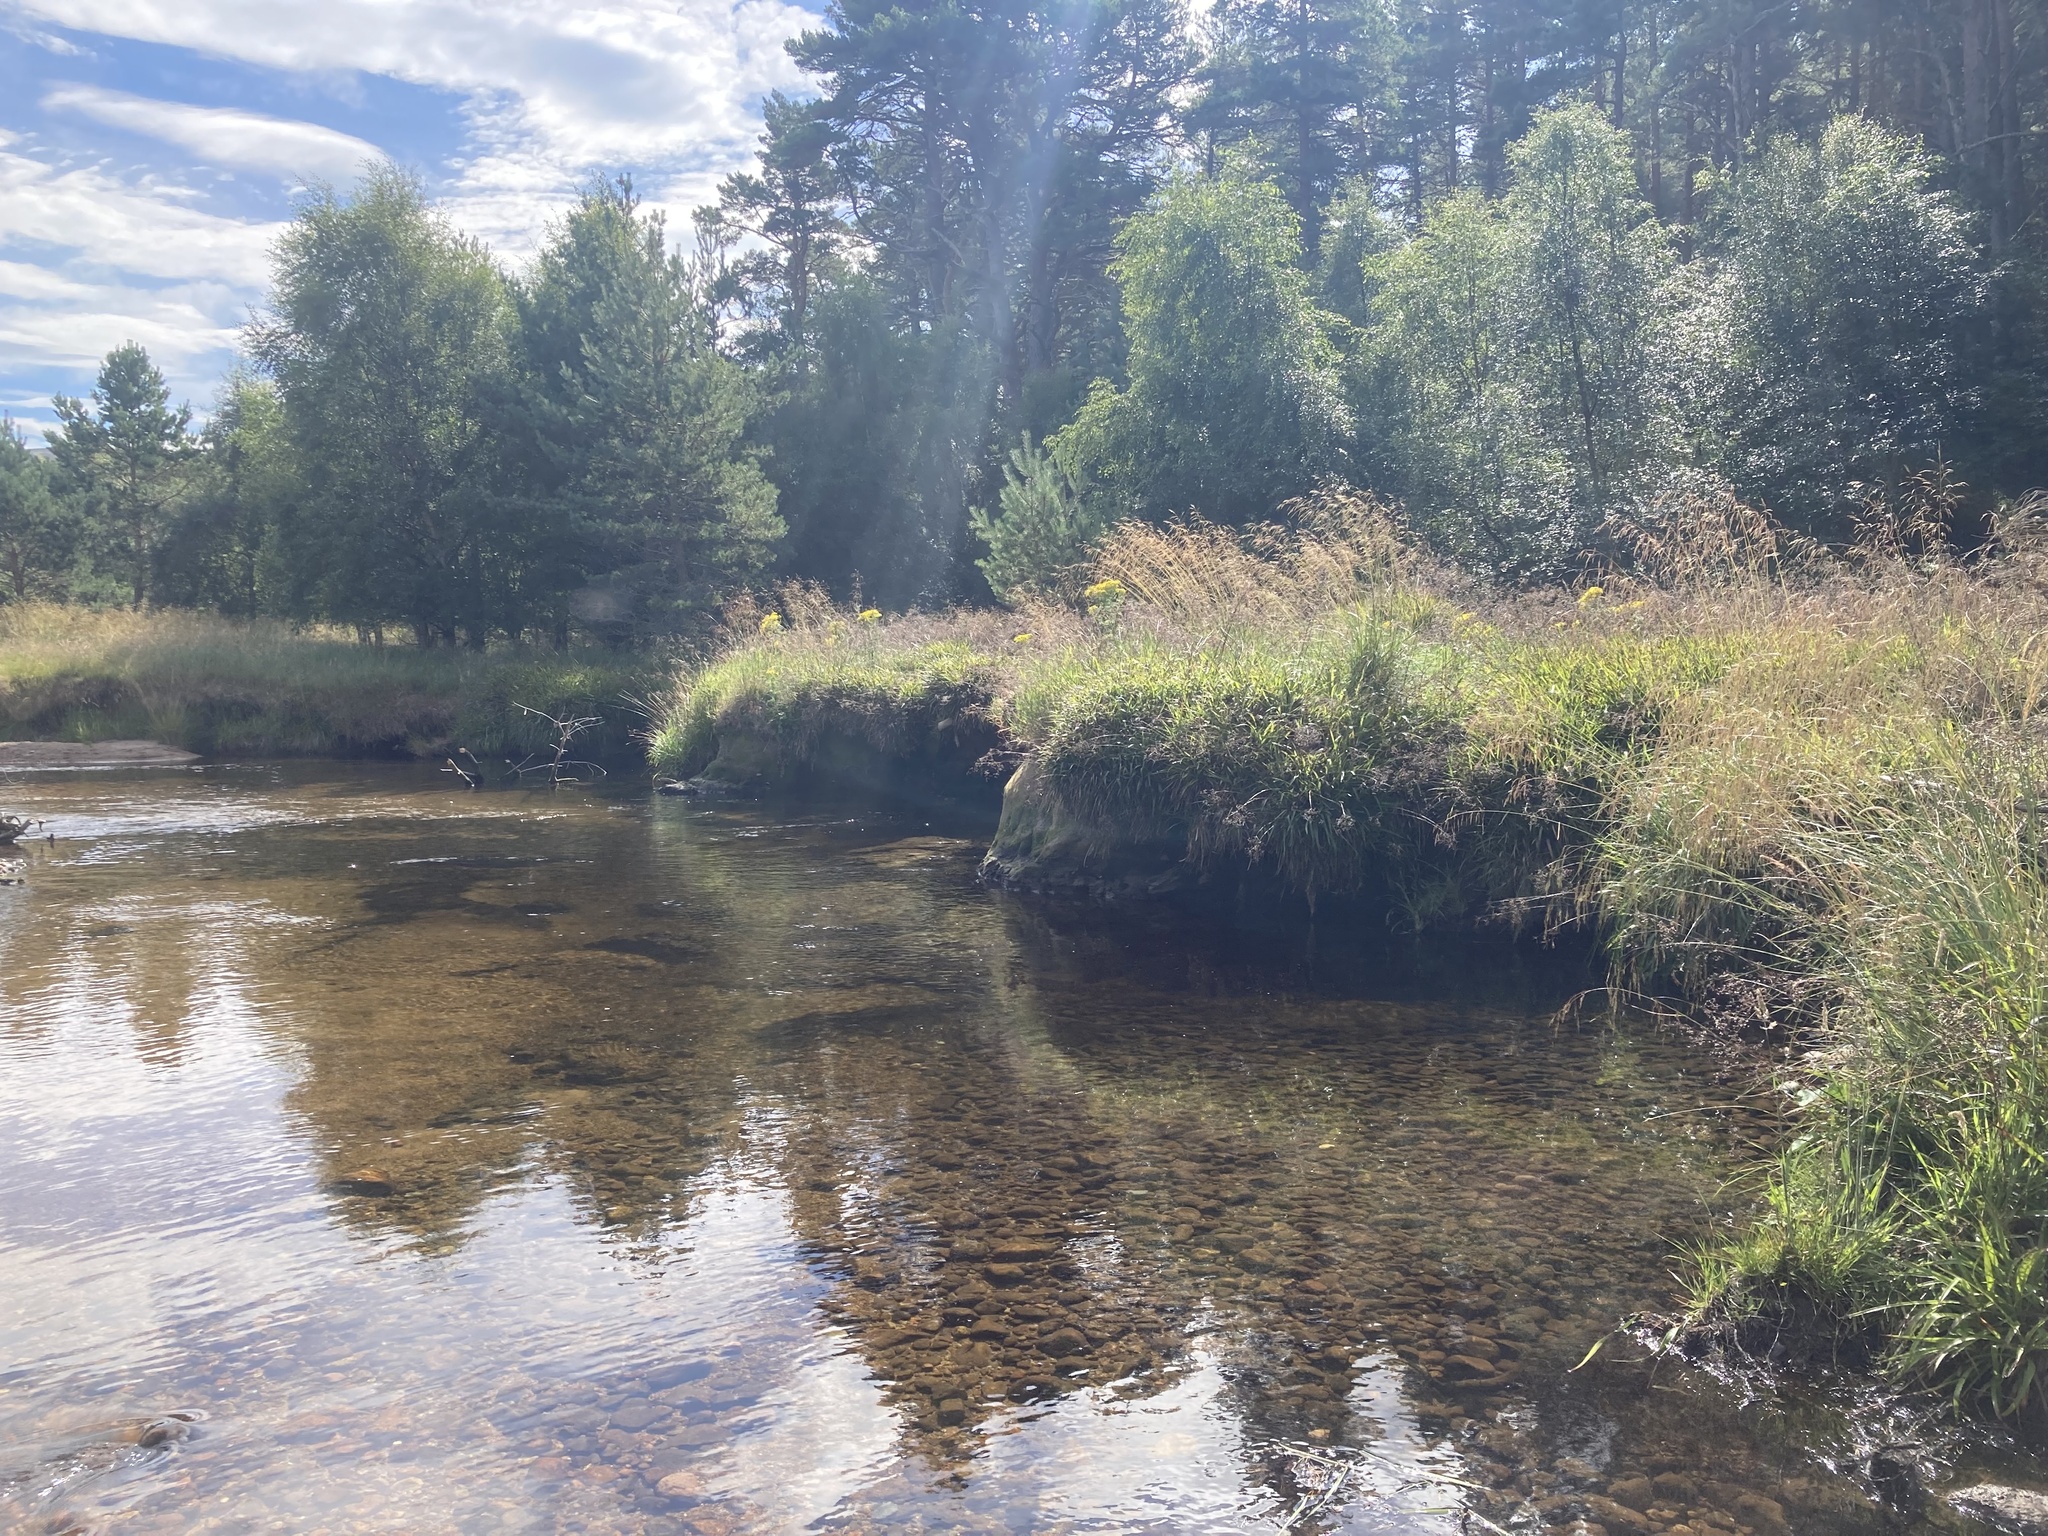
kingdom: Plantae
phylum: Tracheophyta
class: Magnoliopsida
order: Lamiales
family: Phrymaceae
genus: Erythranthe
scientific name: Erythranthe guttata
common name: Monkeyflower
